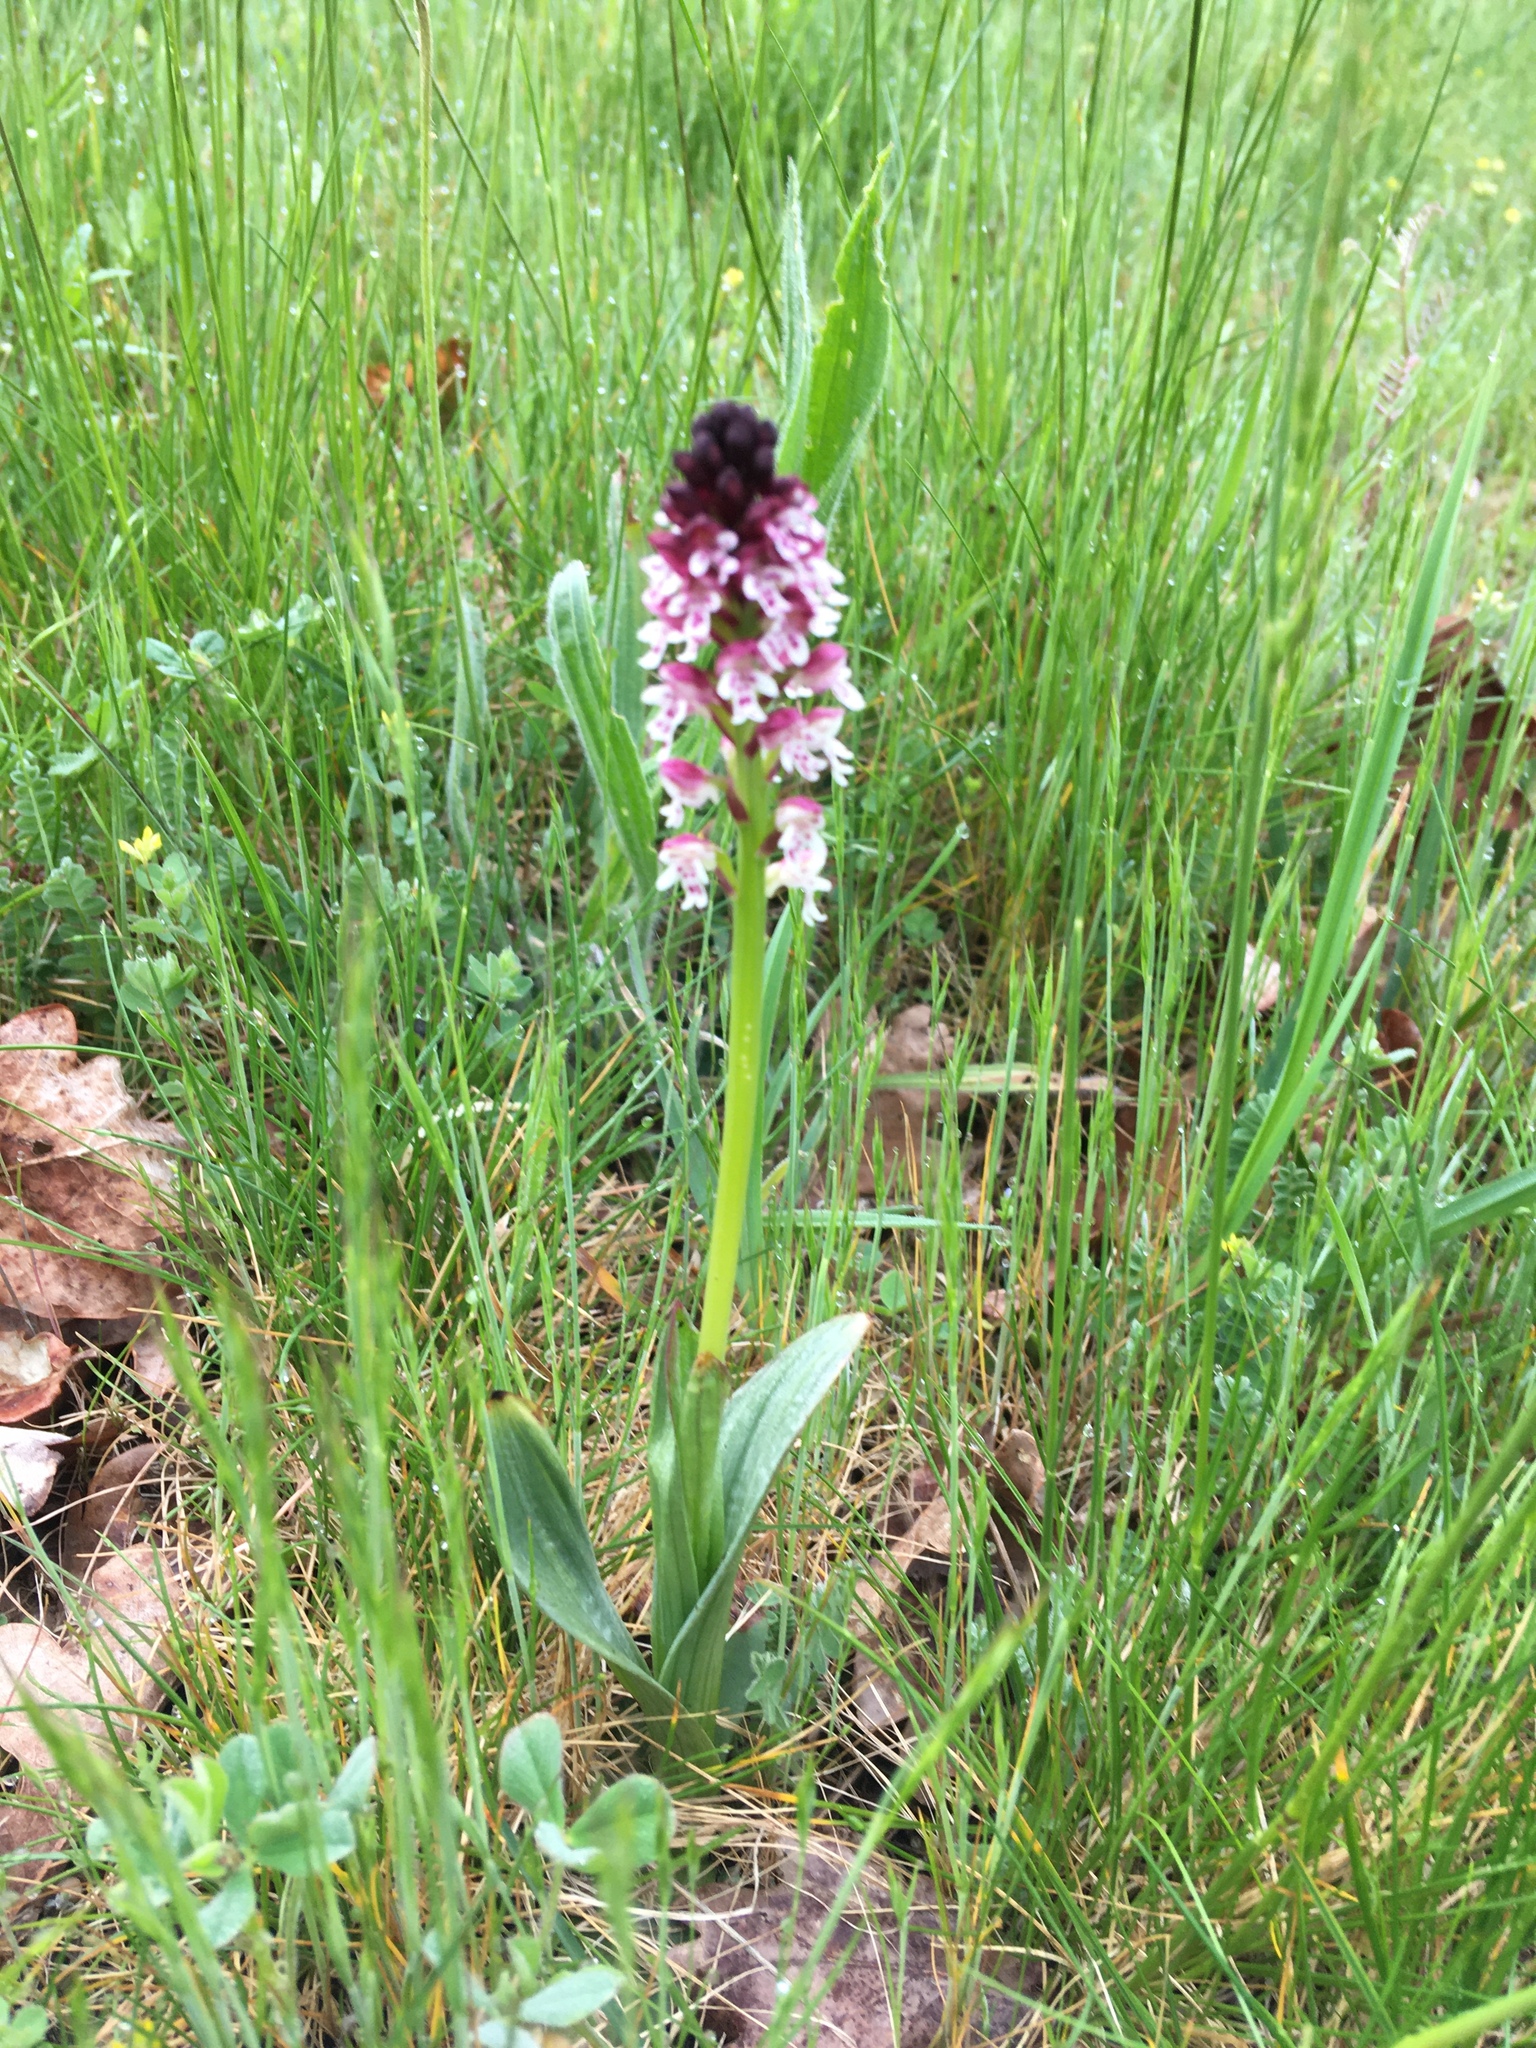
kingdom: Plantae
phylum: Tracheophyta
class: Liliopsida
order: Asparagales
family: Orchidaceae
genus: Neotinea
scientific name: Neotinea ustulata
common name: Burnt orchid
